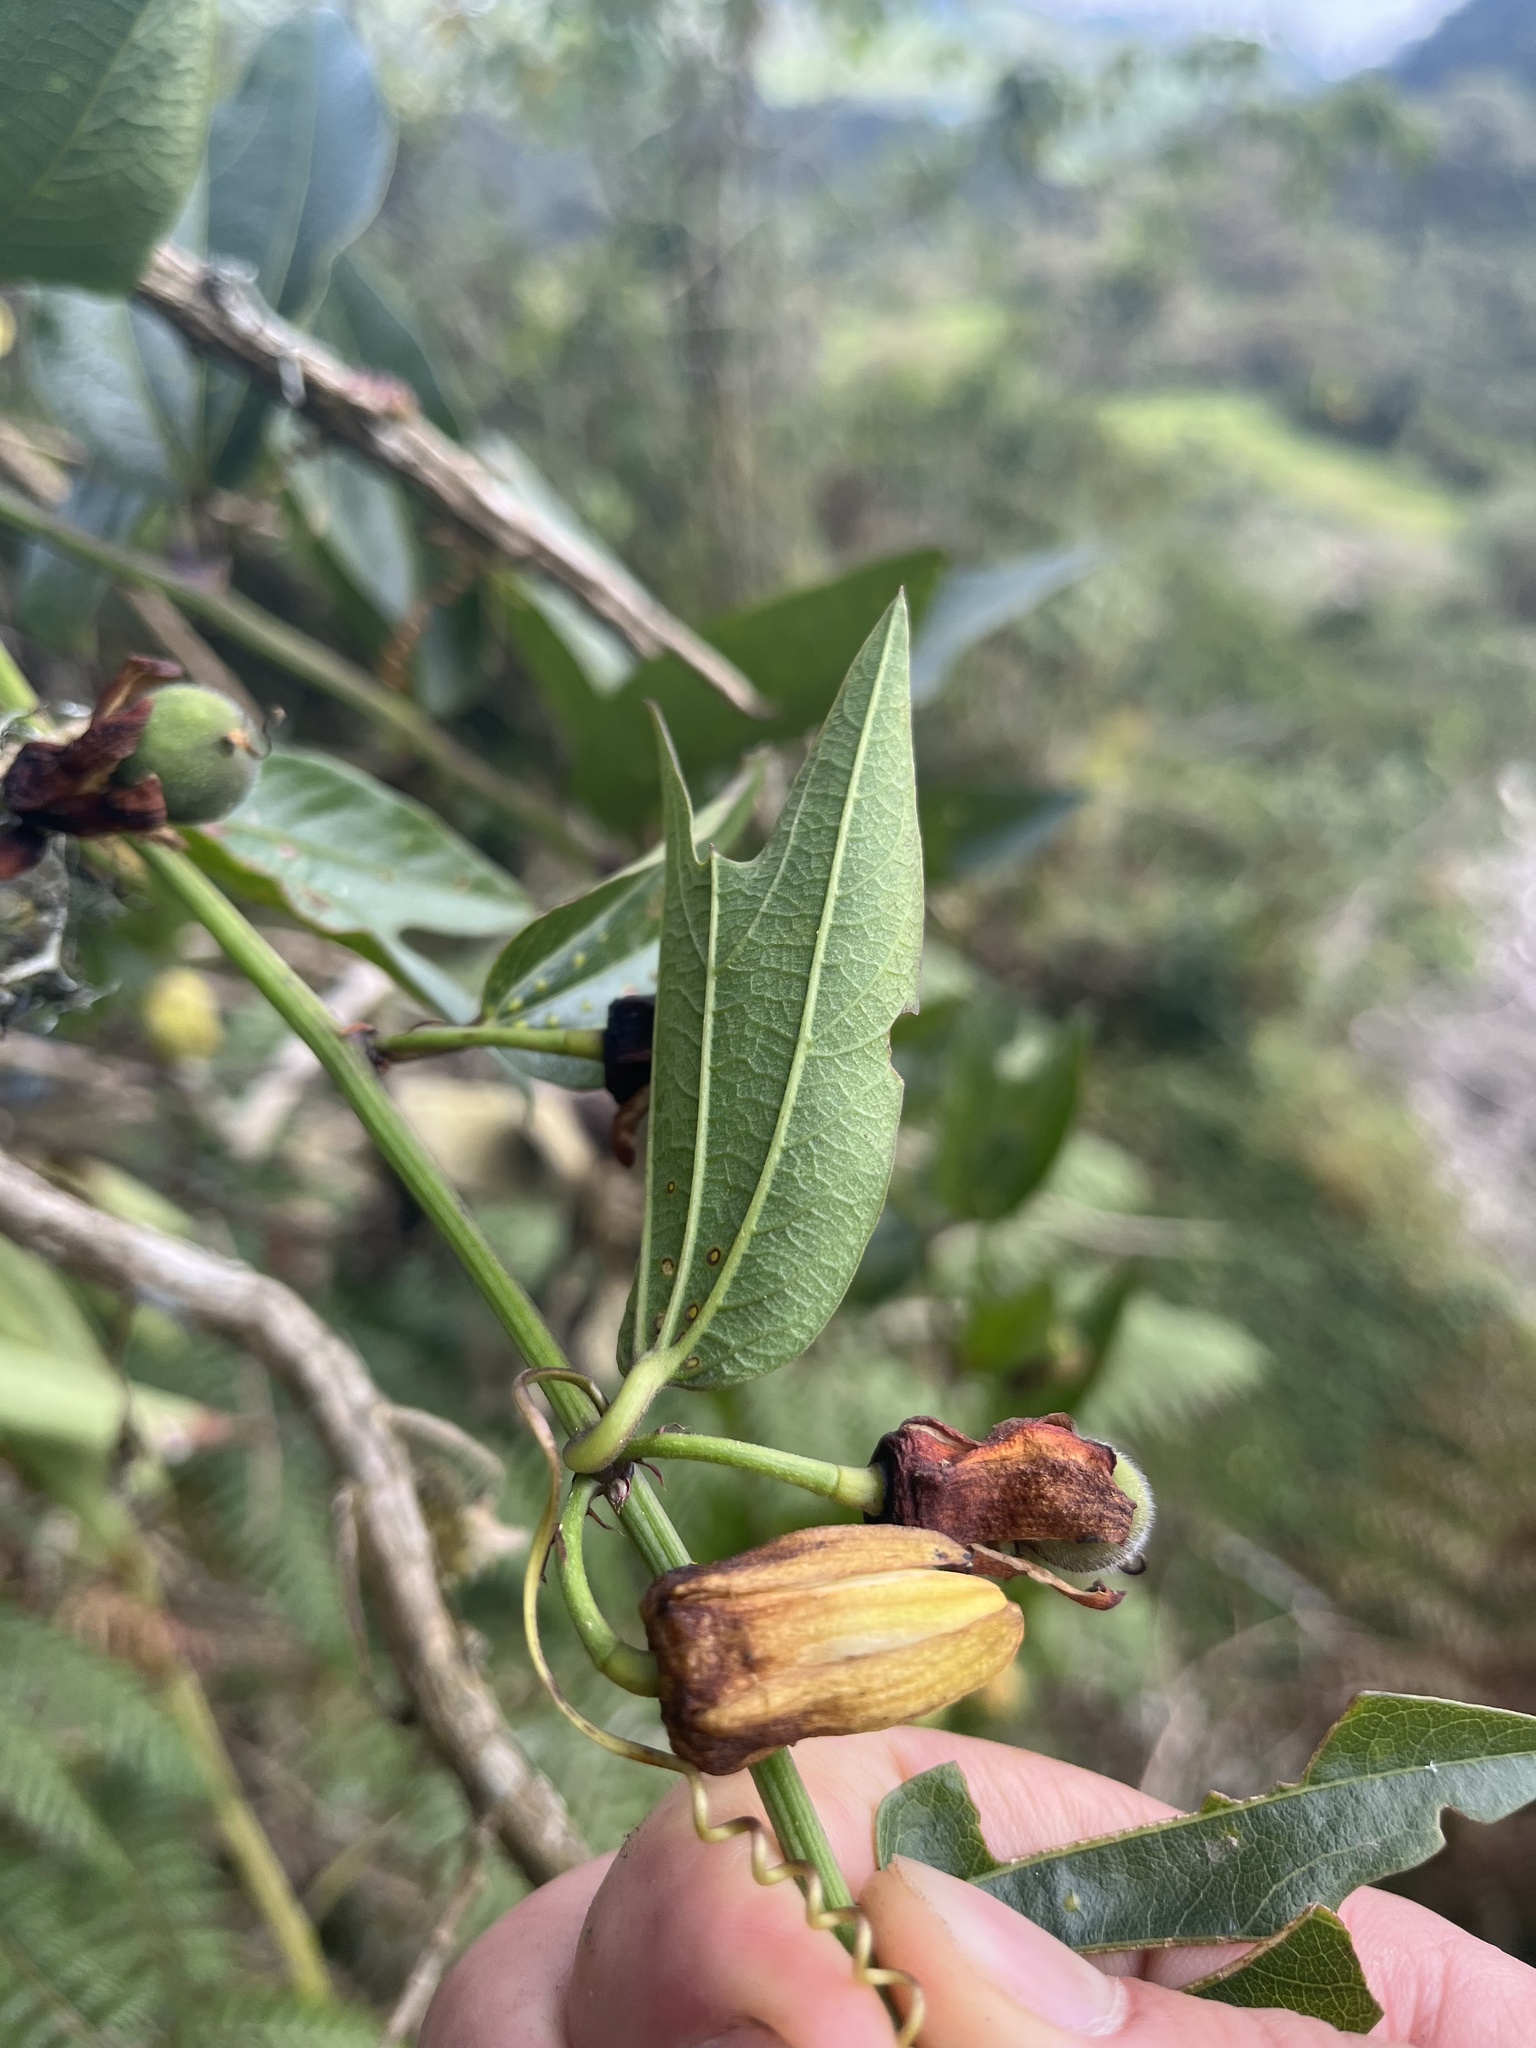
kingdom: Plantae
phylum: Tracheophyta
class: Magnoliopsida
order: Malpighiales
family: Passifloraceae
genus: Passiflora
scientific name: Passiflora chelidonea
